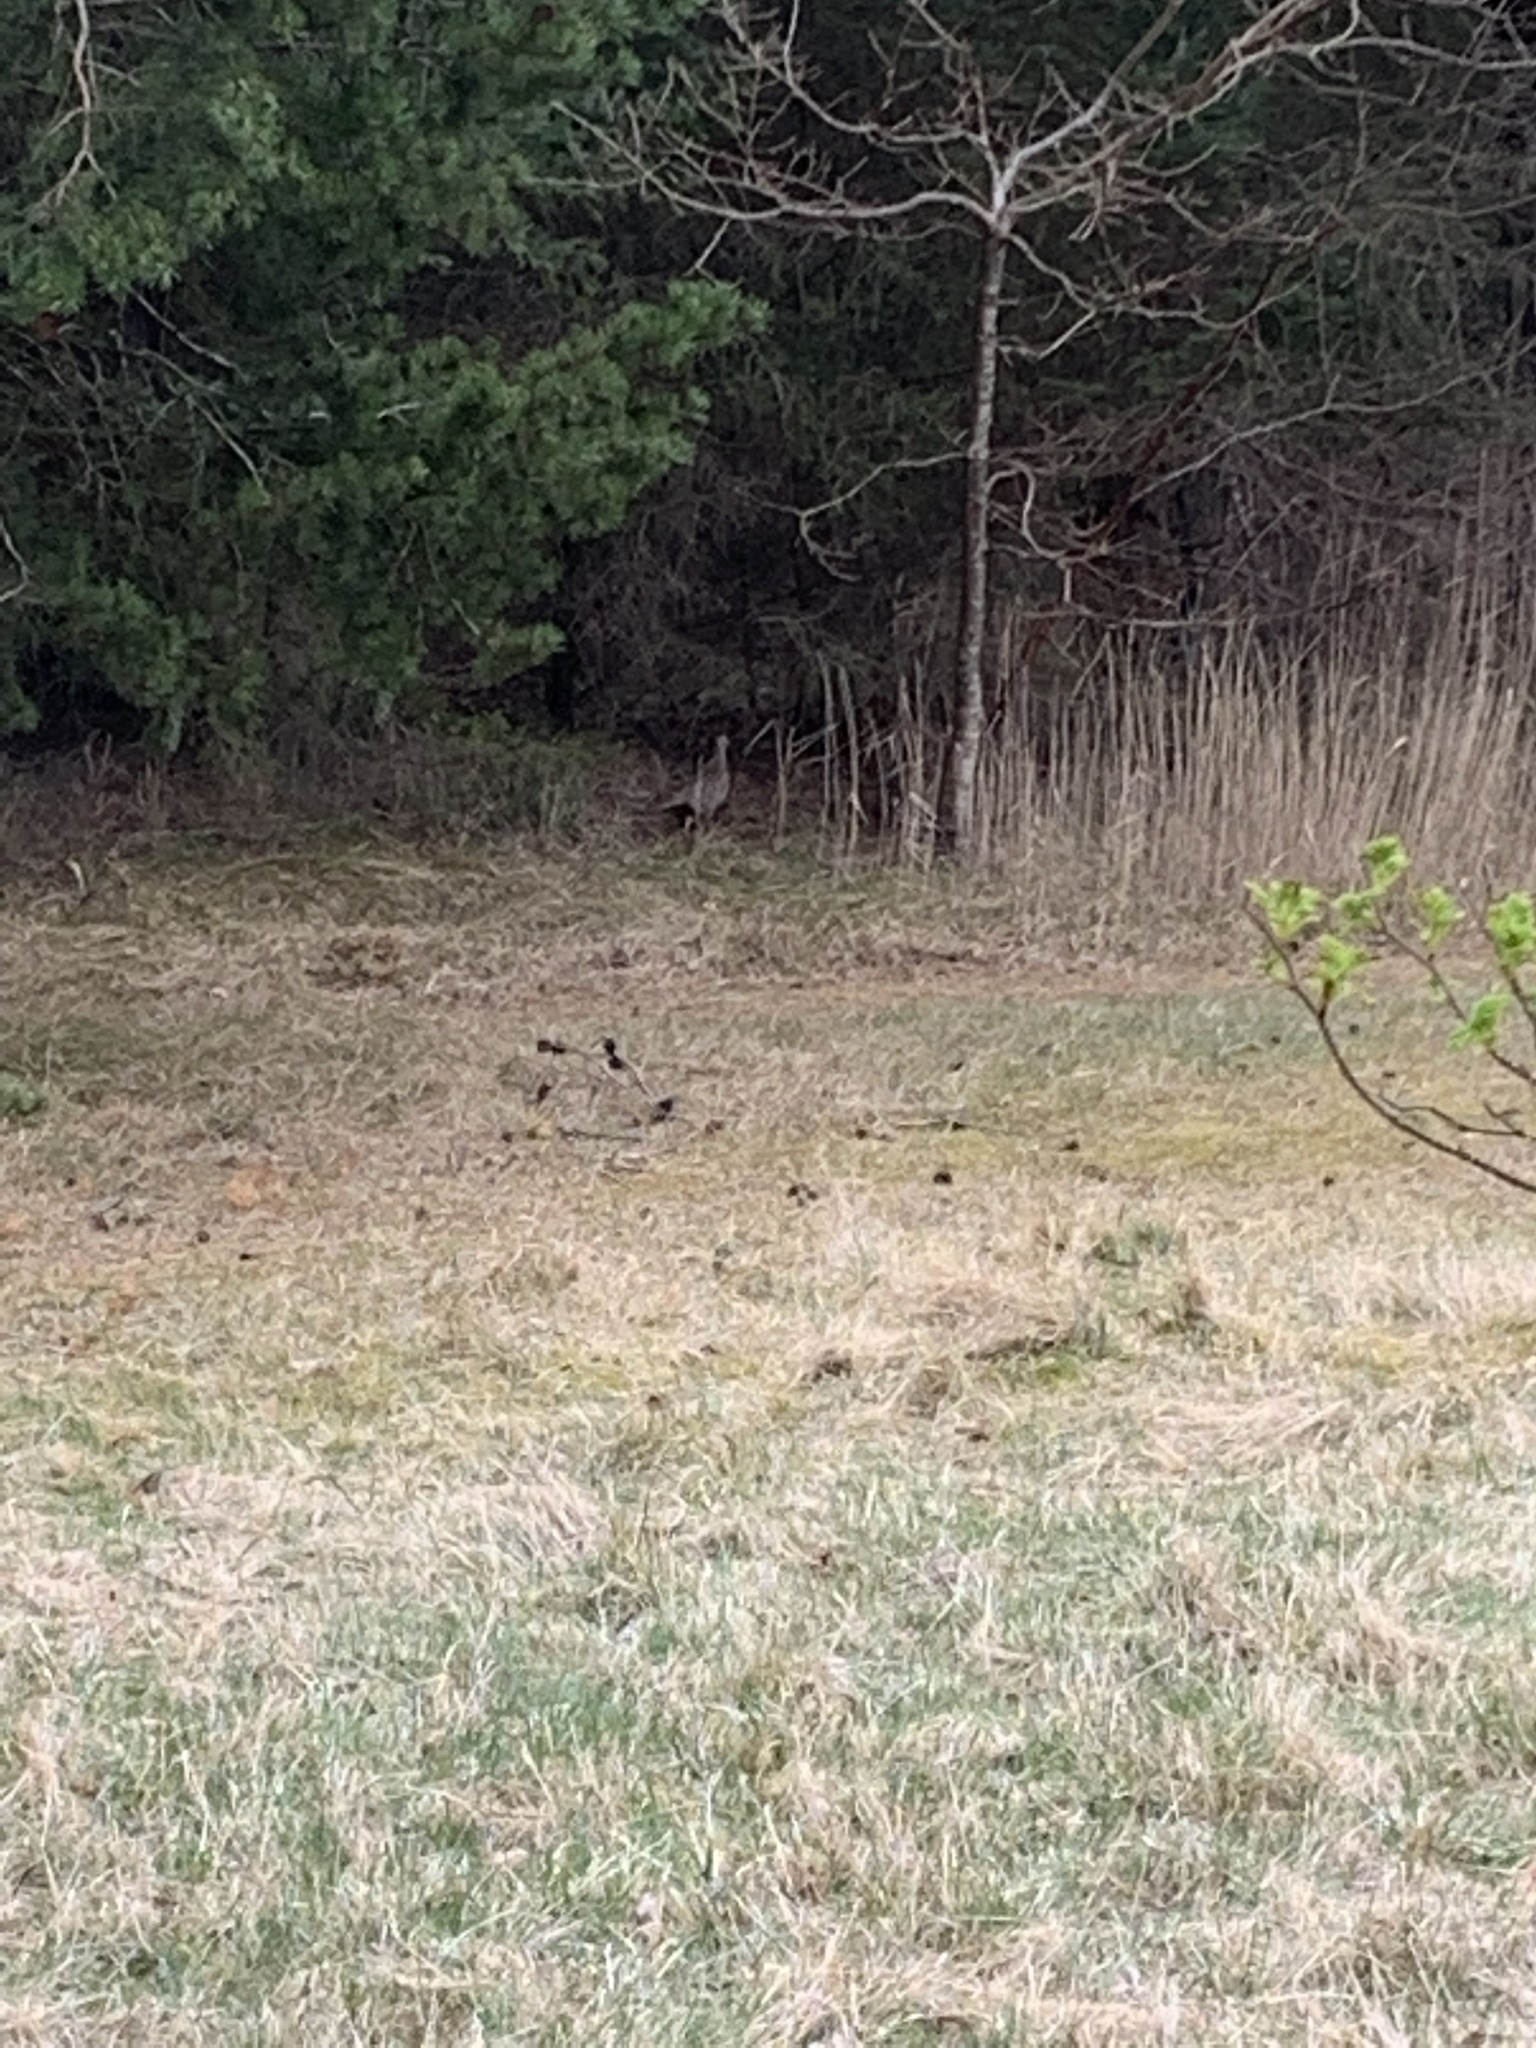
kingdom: Animalia
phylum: Chordata
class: Aves
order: Galliformes
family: Phasianidae
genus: Phasianus
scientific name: Phasianus colchicus
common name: Common pheasant
